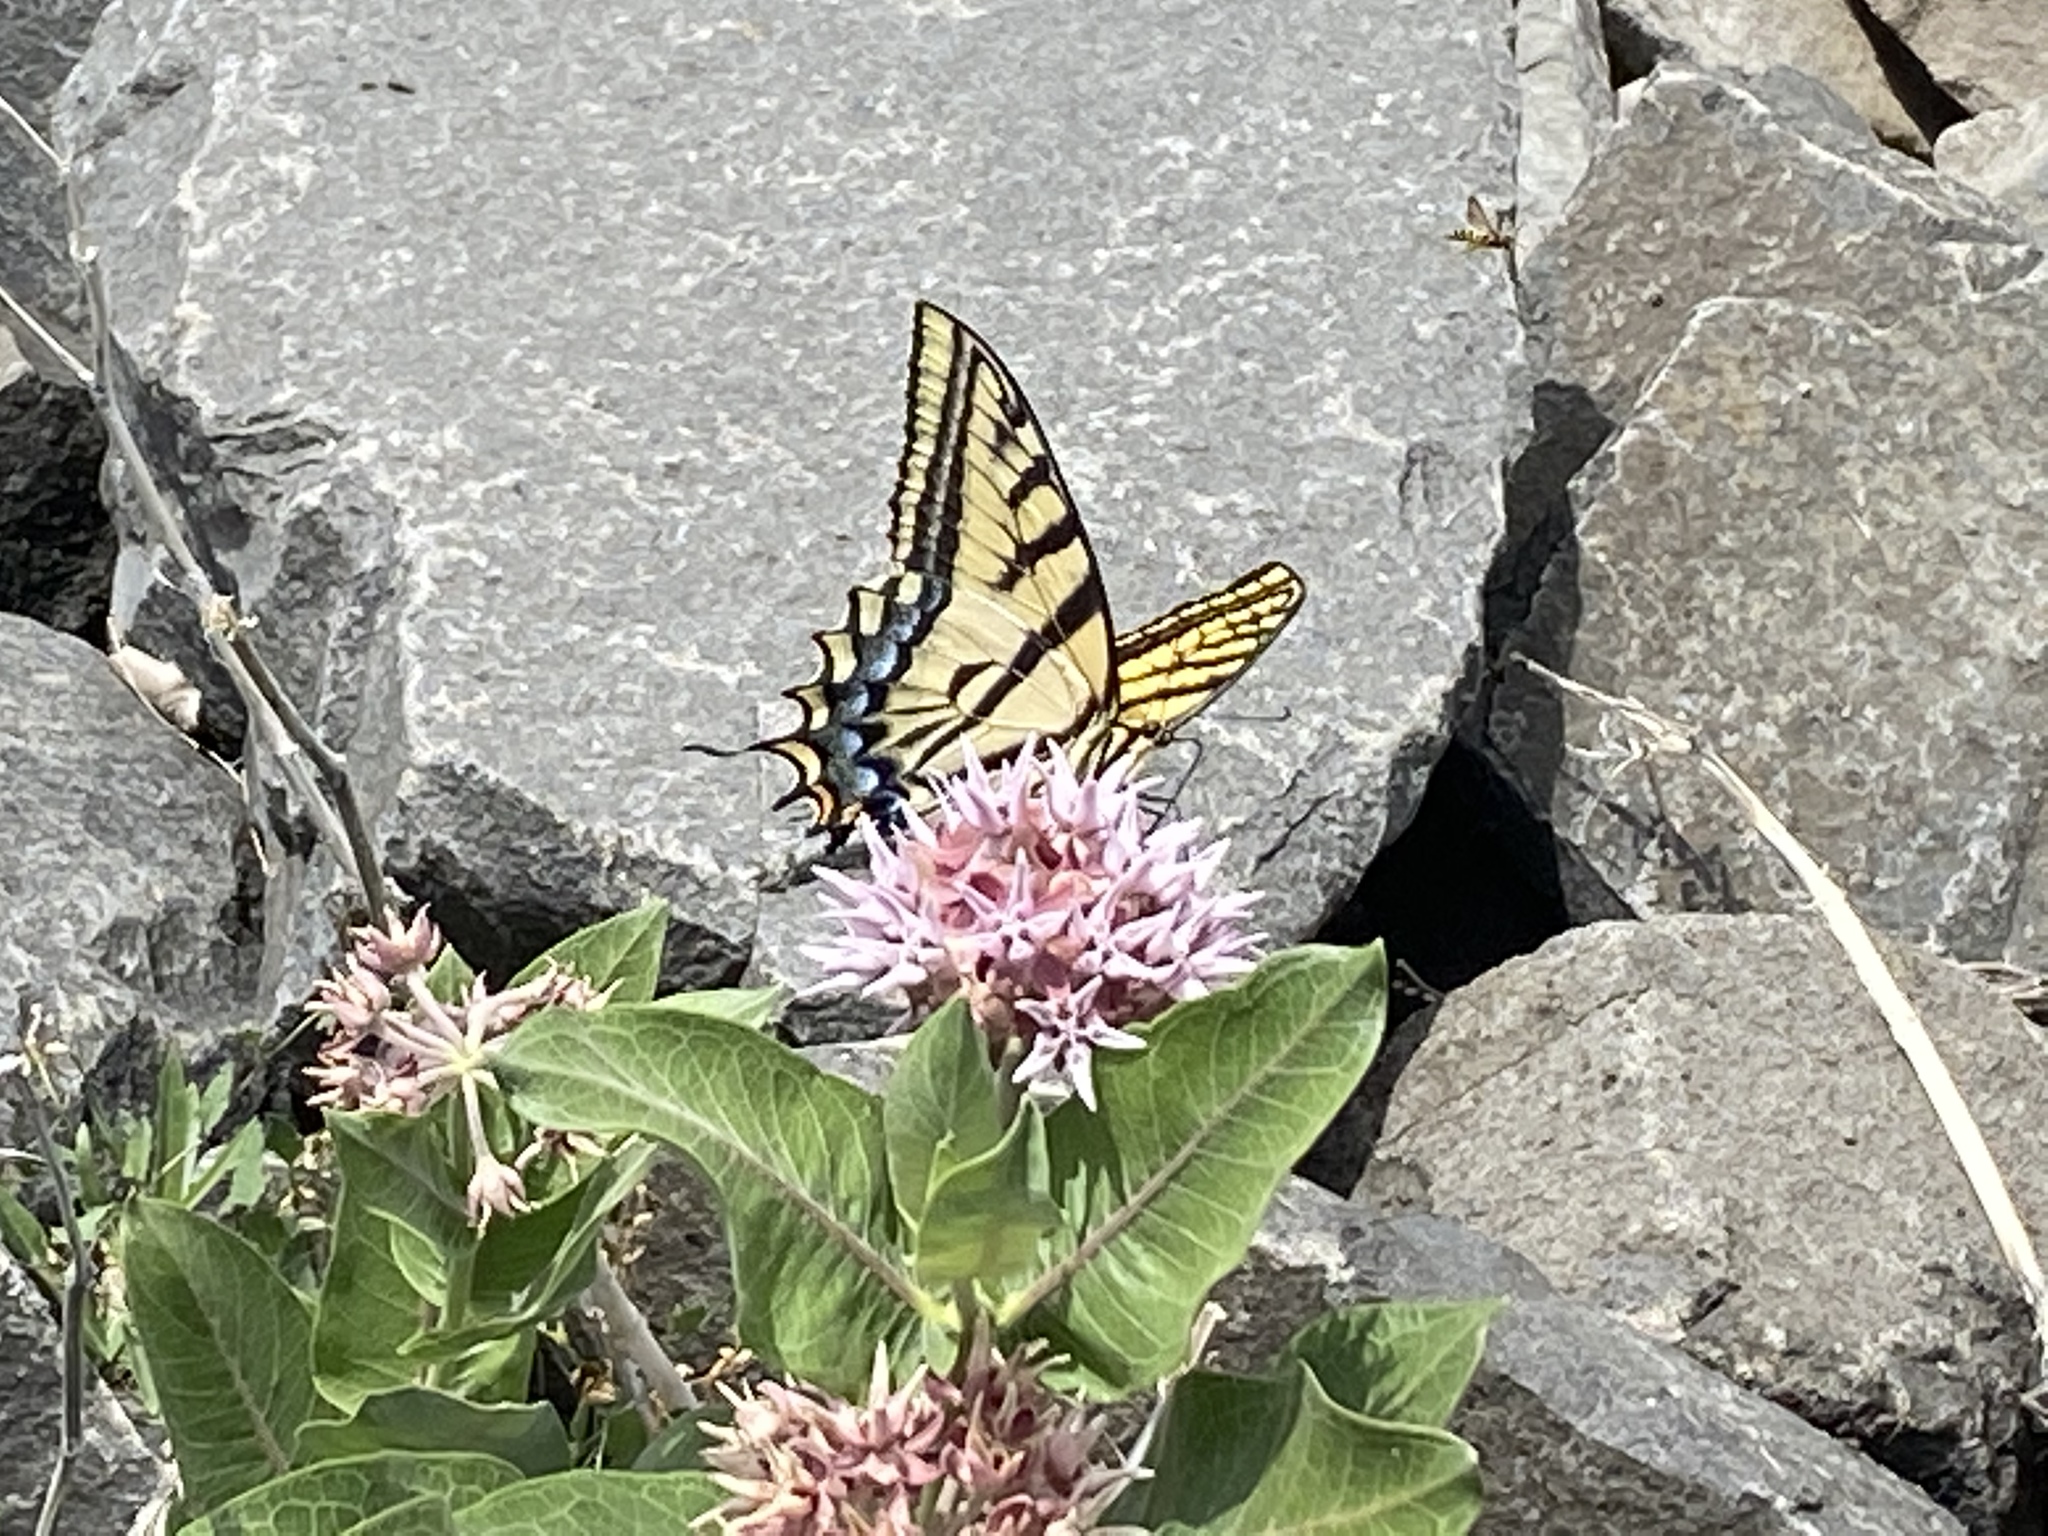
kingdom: Animalia
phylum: Arthropoda
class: Insecta
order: Lepidoptera
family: Papilionidae
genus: Papilio
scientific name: Papilio multicaudata
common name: Two-tailed tiger swallowtail
